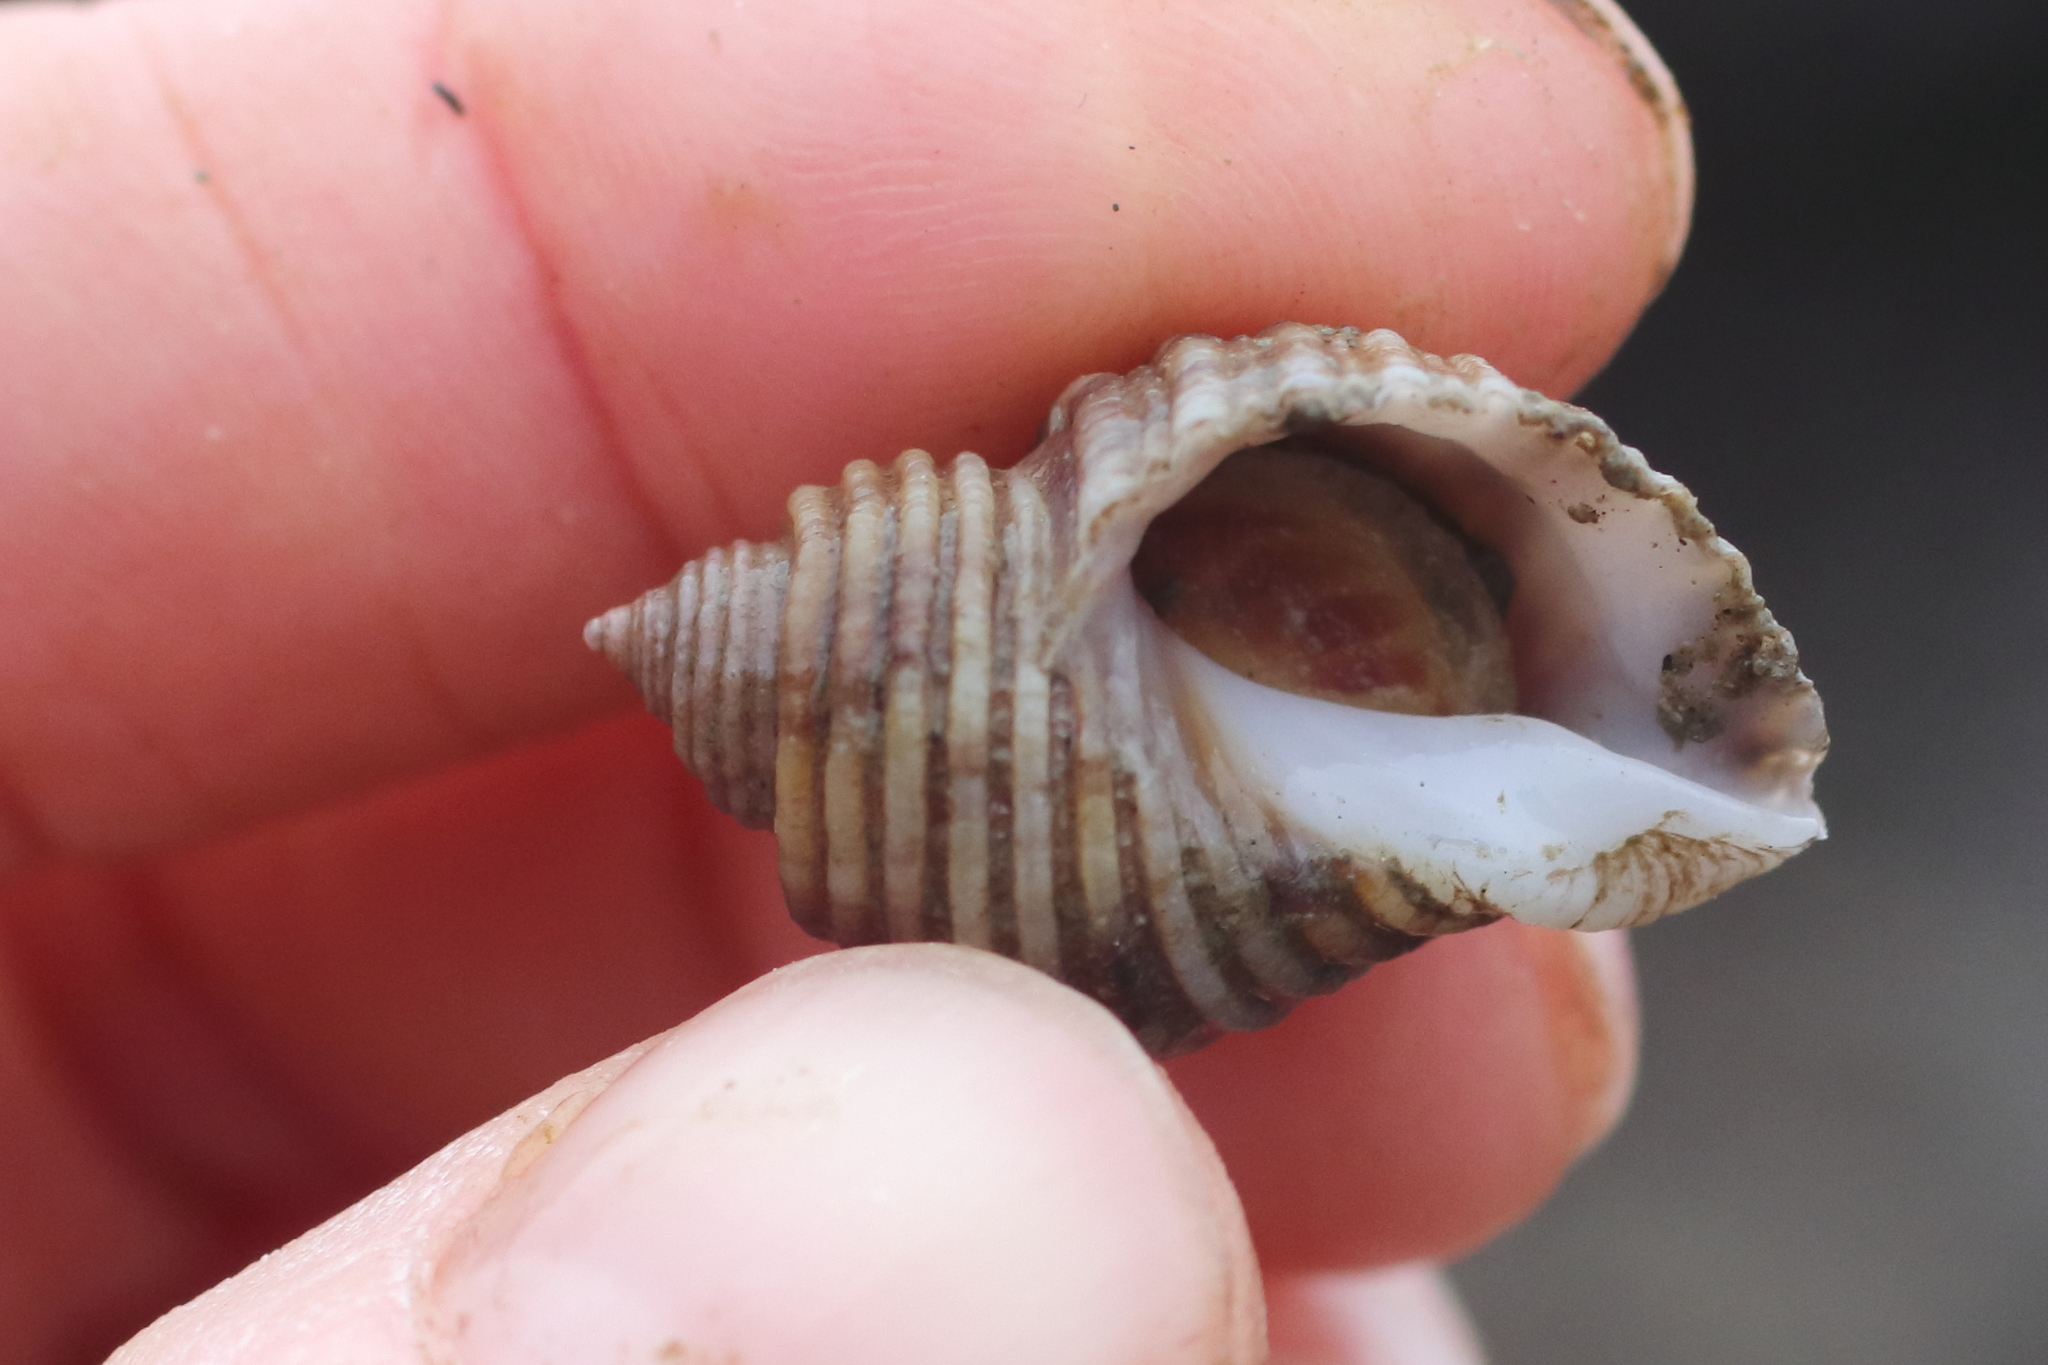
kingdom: Animalia
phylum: Mollusca
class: Gastropoda
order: Neogastropoda
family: Muricidae
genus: Nucella
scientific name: Nucella canaliculata
